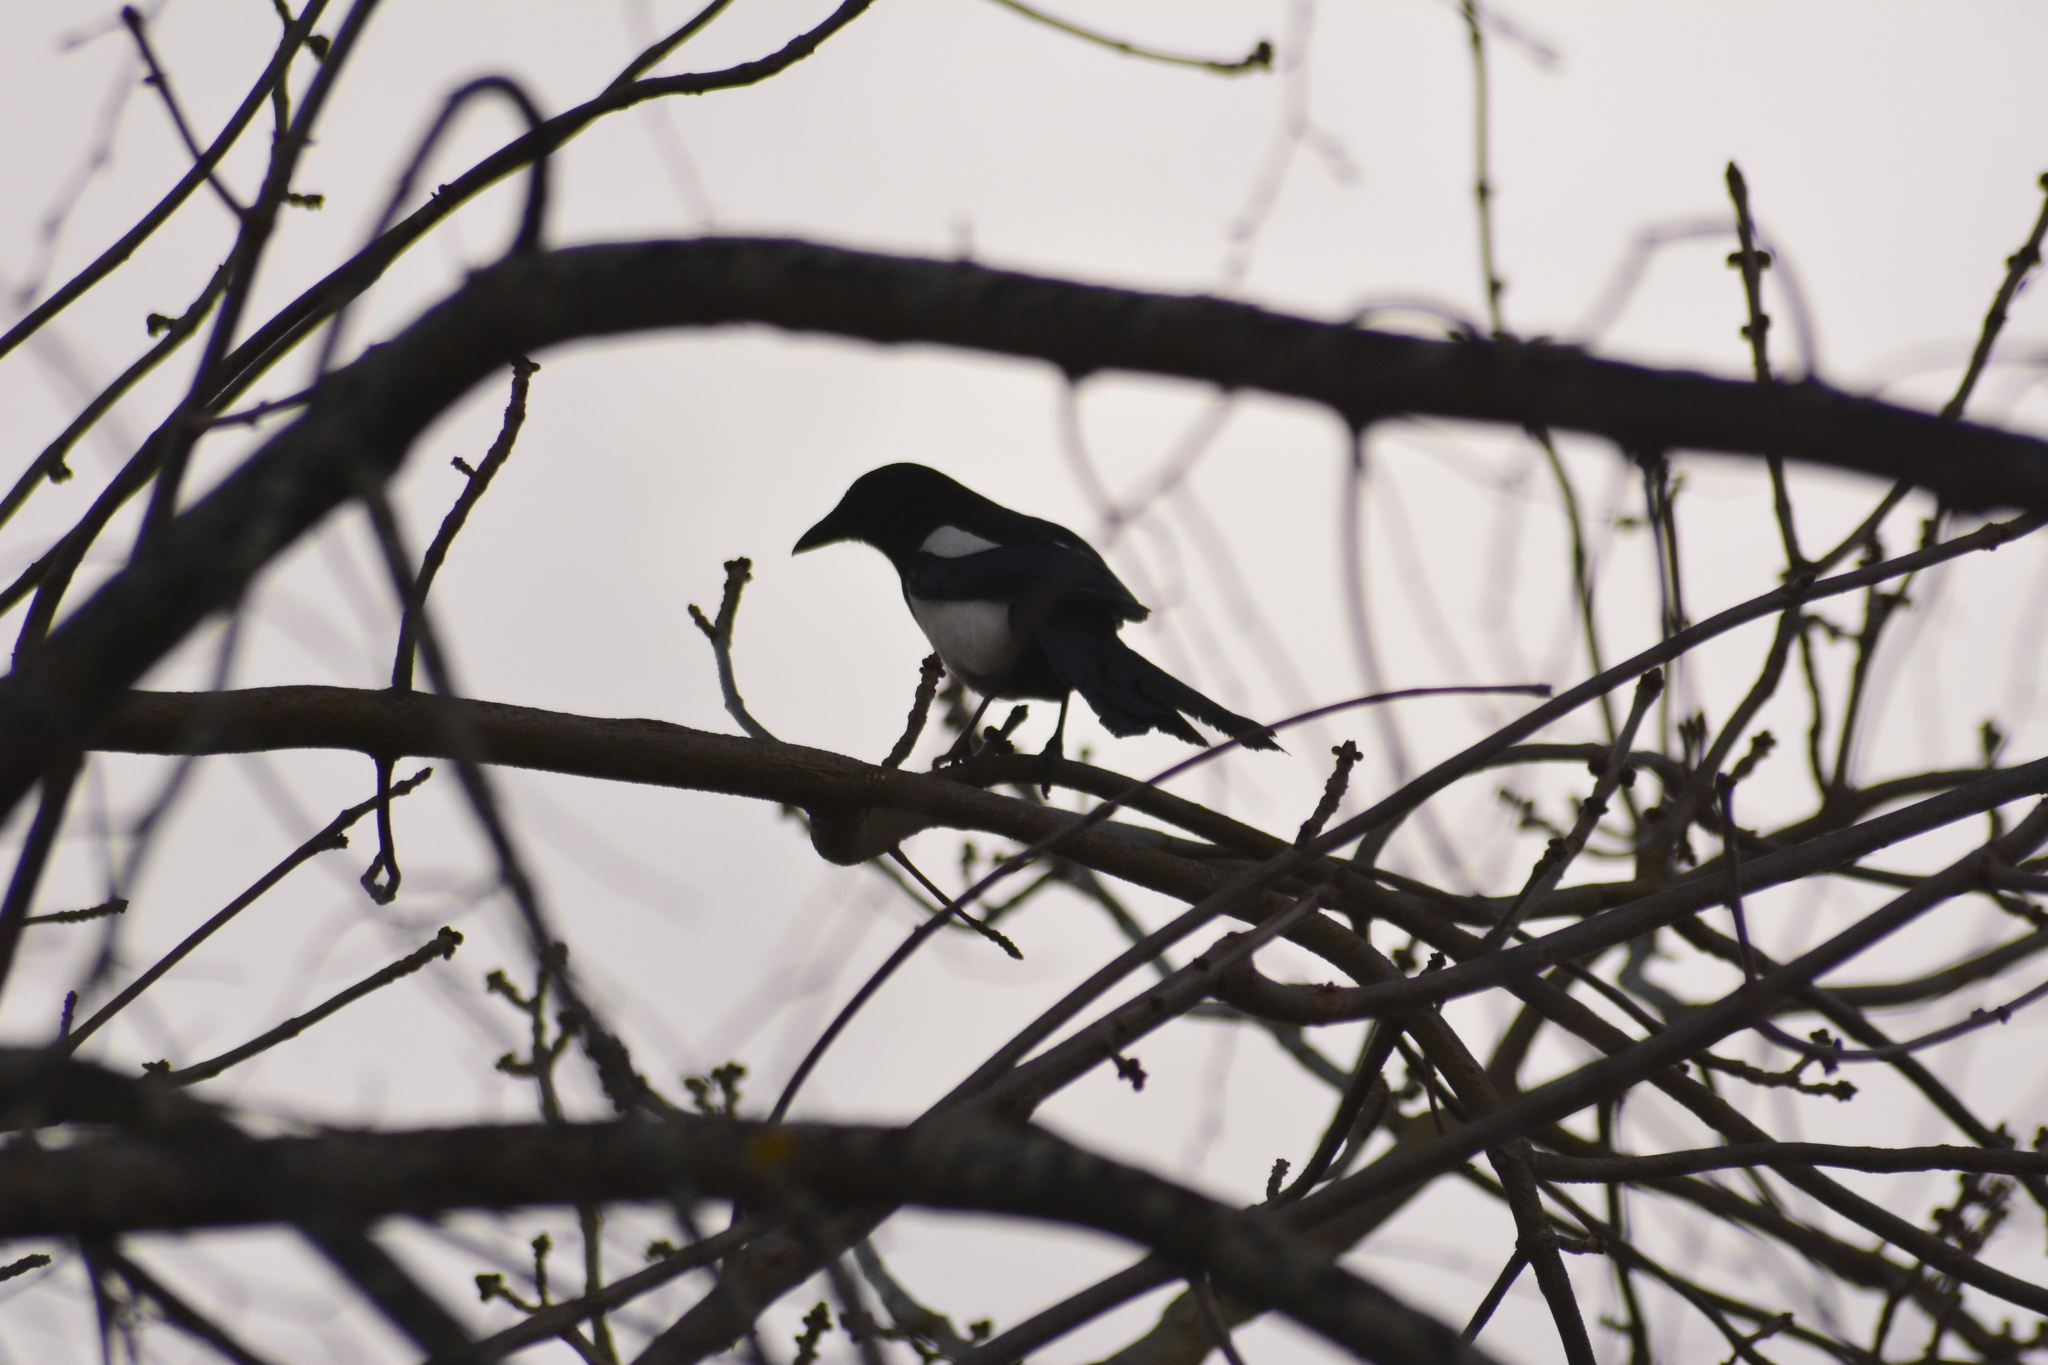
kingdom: Animalia
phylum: Chordata
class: Aves
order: Passeriformes
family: Corvidae
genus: Pica
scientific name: Pica pica
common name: Eurasian magpie
